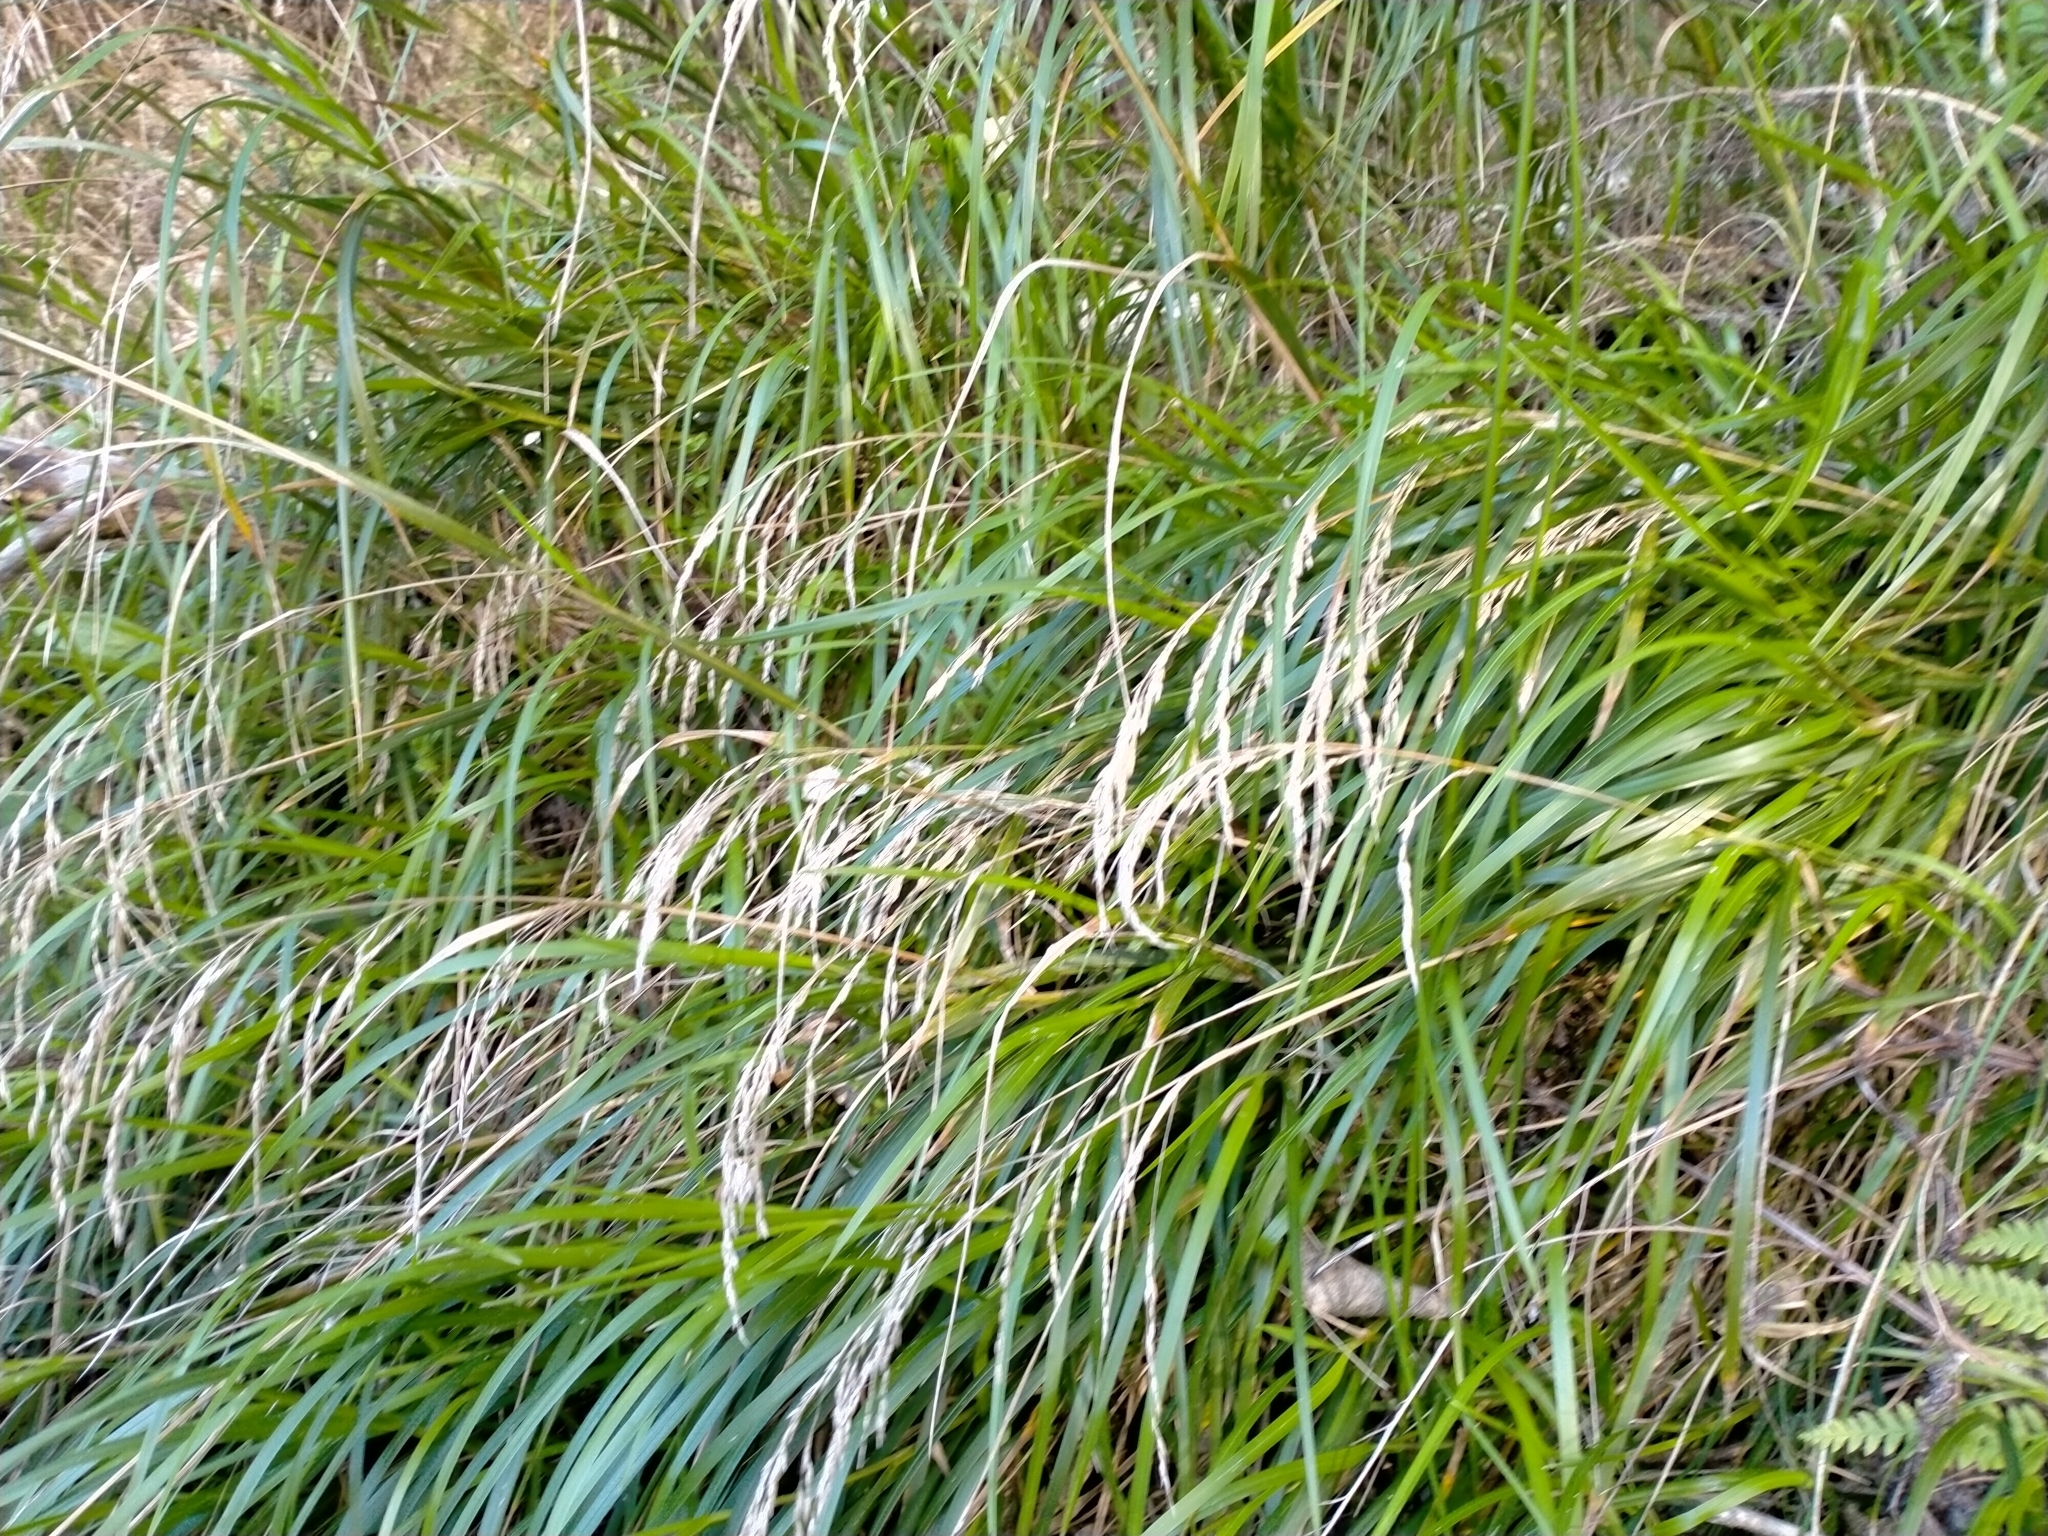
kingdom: Plantae
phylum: Tracheophyta
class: Liliopsida
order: Poales
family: Poaceae
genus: Poa
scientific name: Poa anceps
